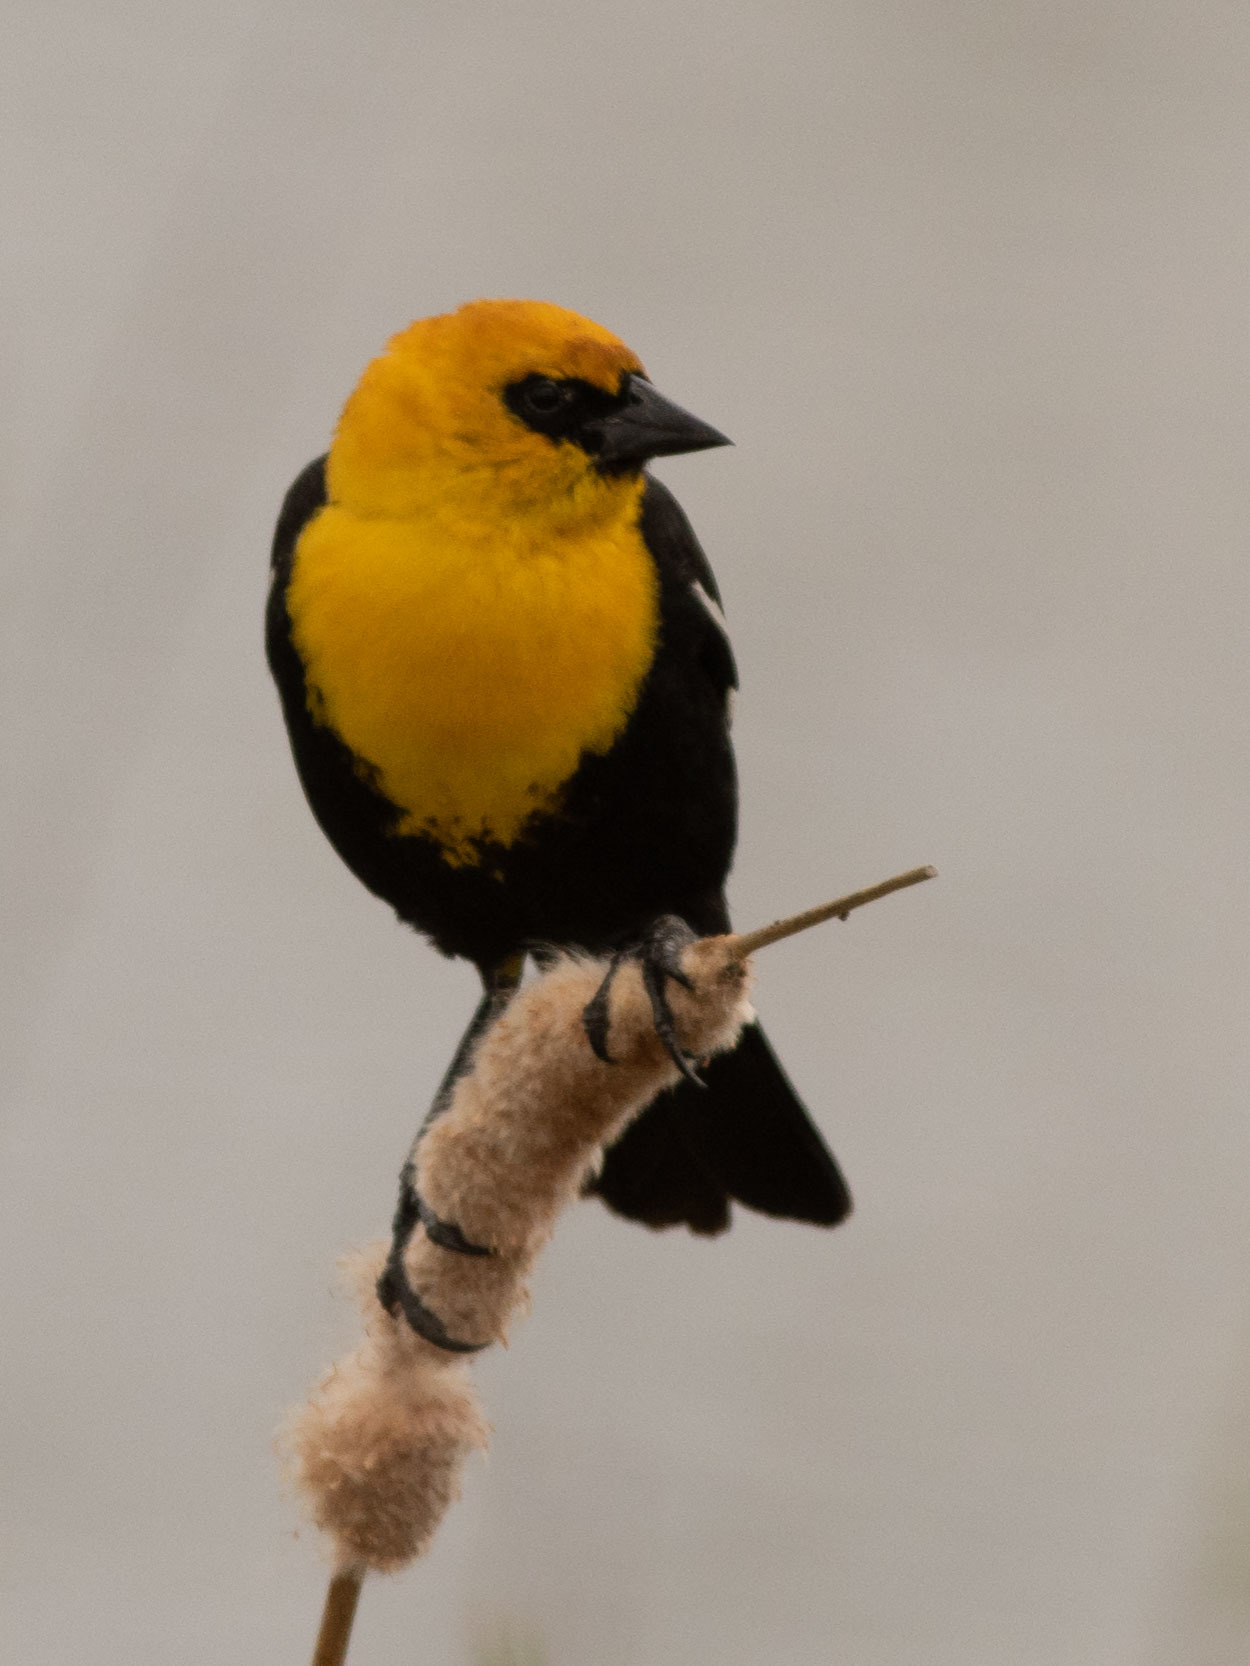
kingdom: Animalia
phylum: Chordata
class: Aves
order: Passeriformes
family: Icteridae
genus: Xanthocephalus
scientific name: Xanthocephalus xanthocephalus
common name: Yellow-headed blackbird
